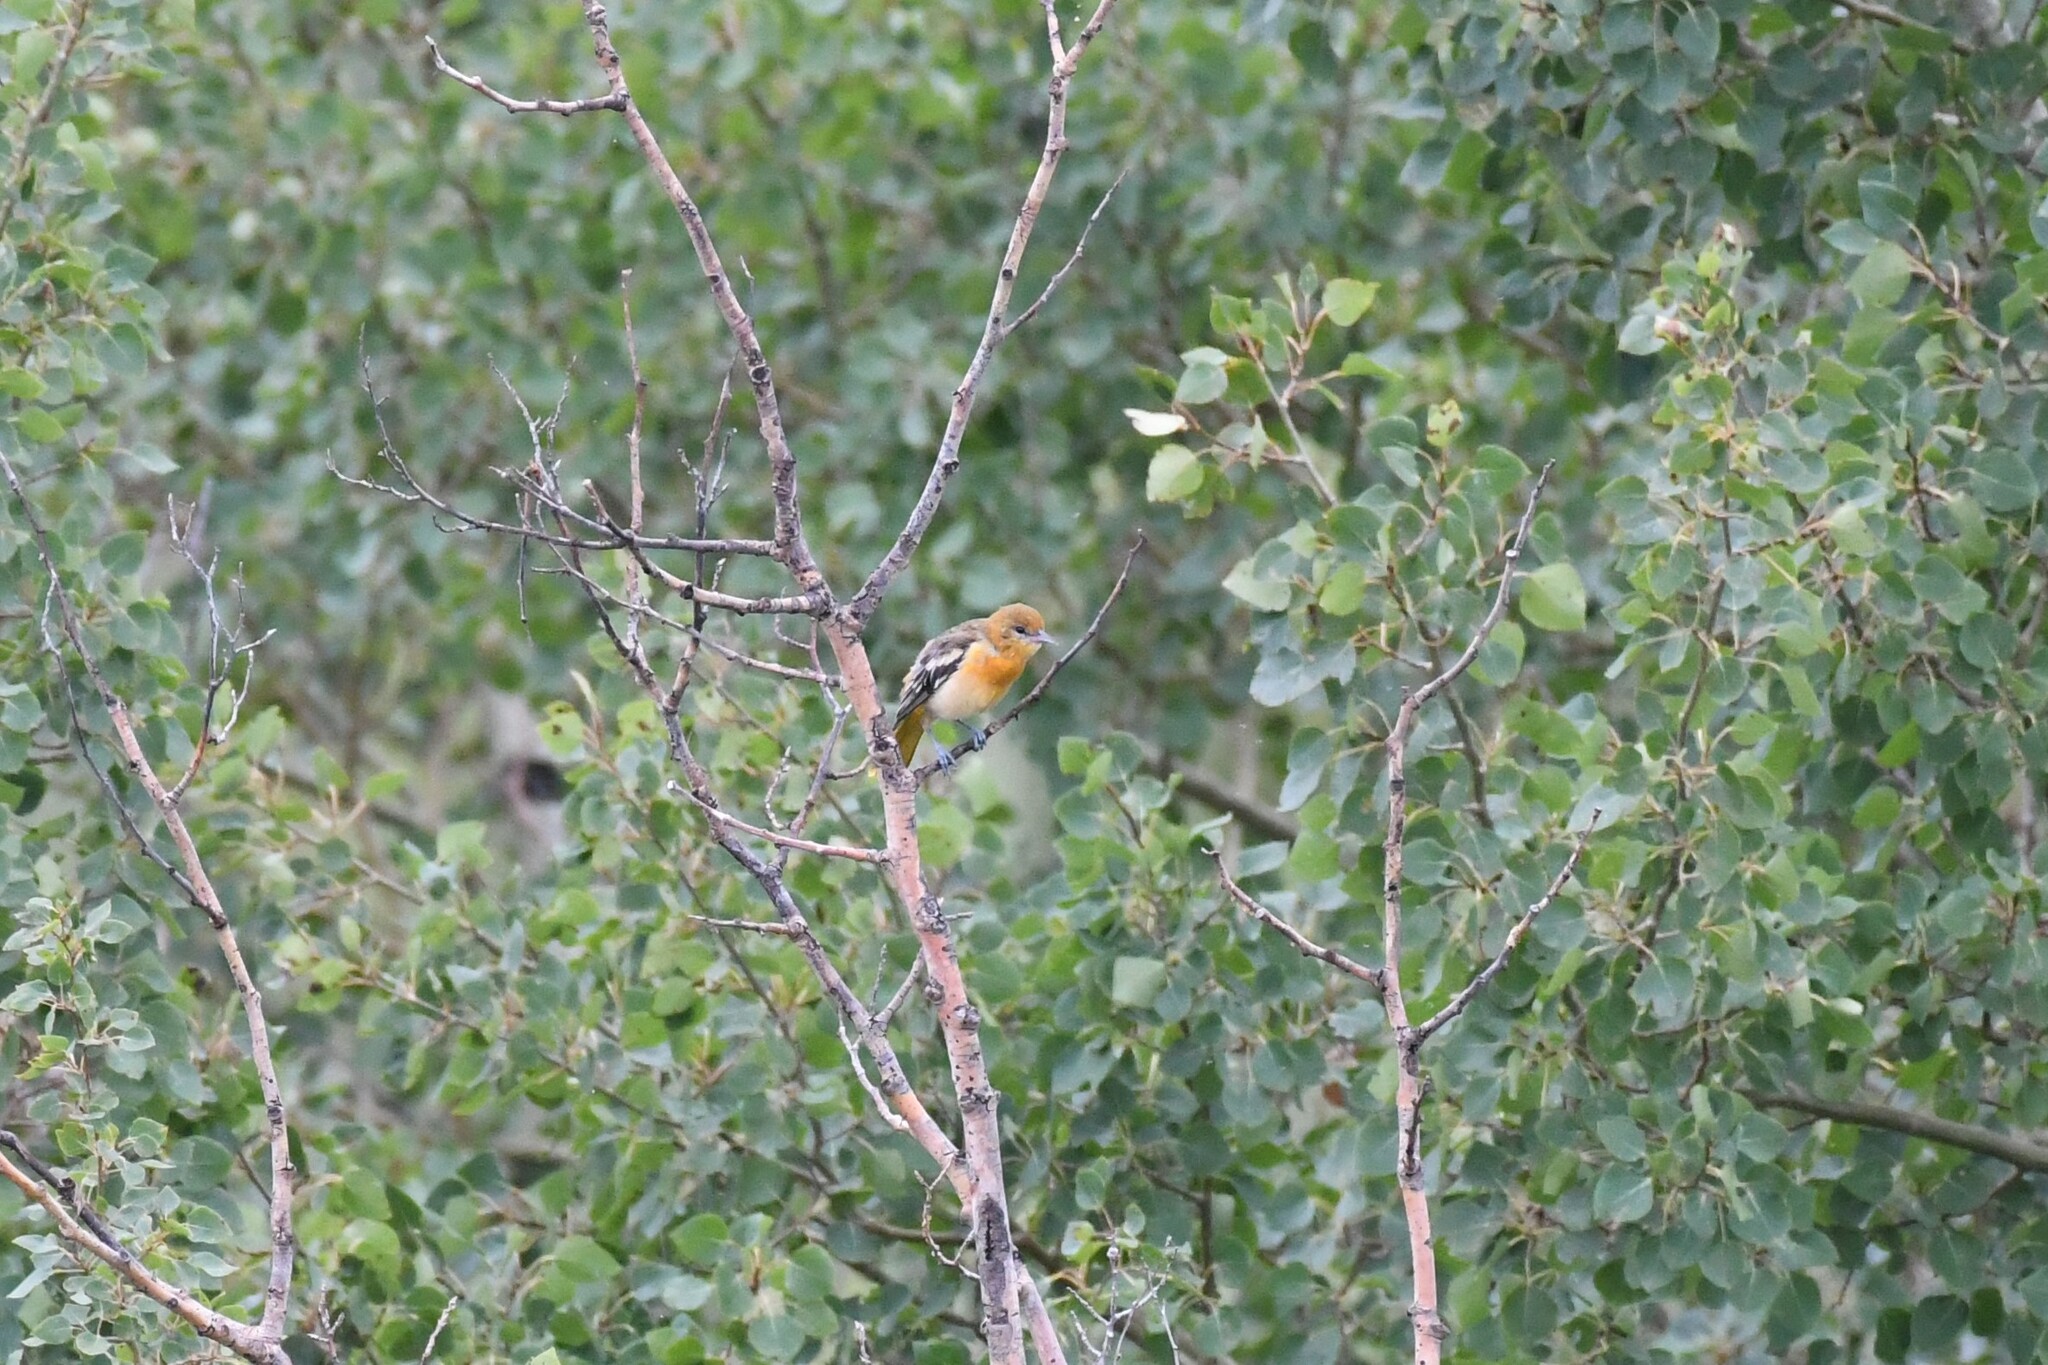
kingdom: Animalia
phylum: Chordata
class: Aves
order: Passeriformes
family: Icteridae
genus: Icterus
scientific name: Icterus galbula
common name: Baltimore oriole
